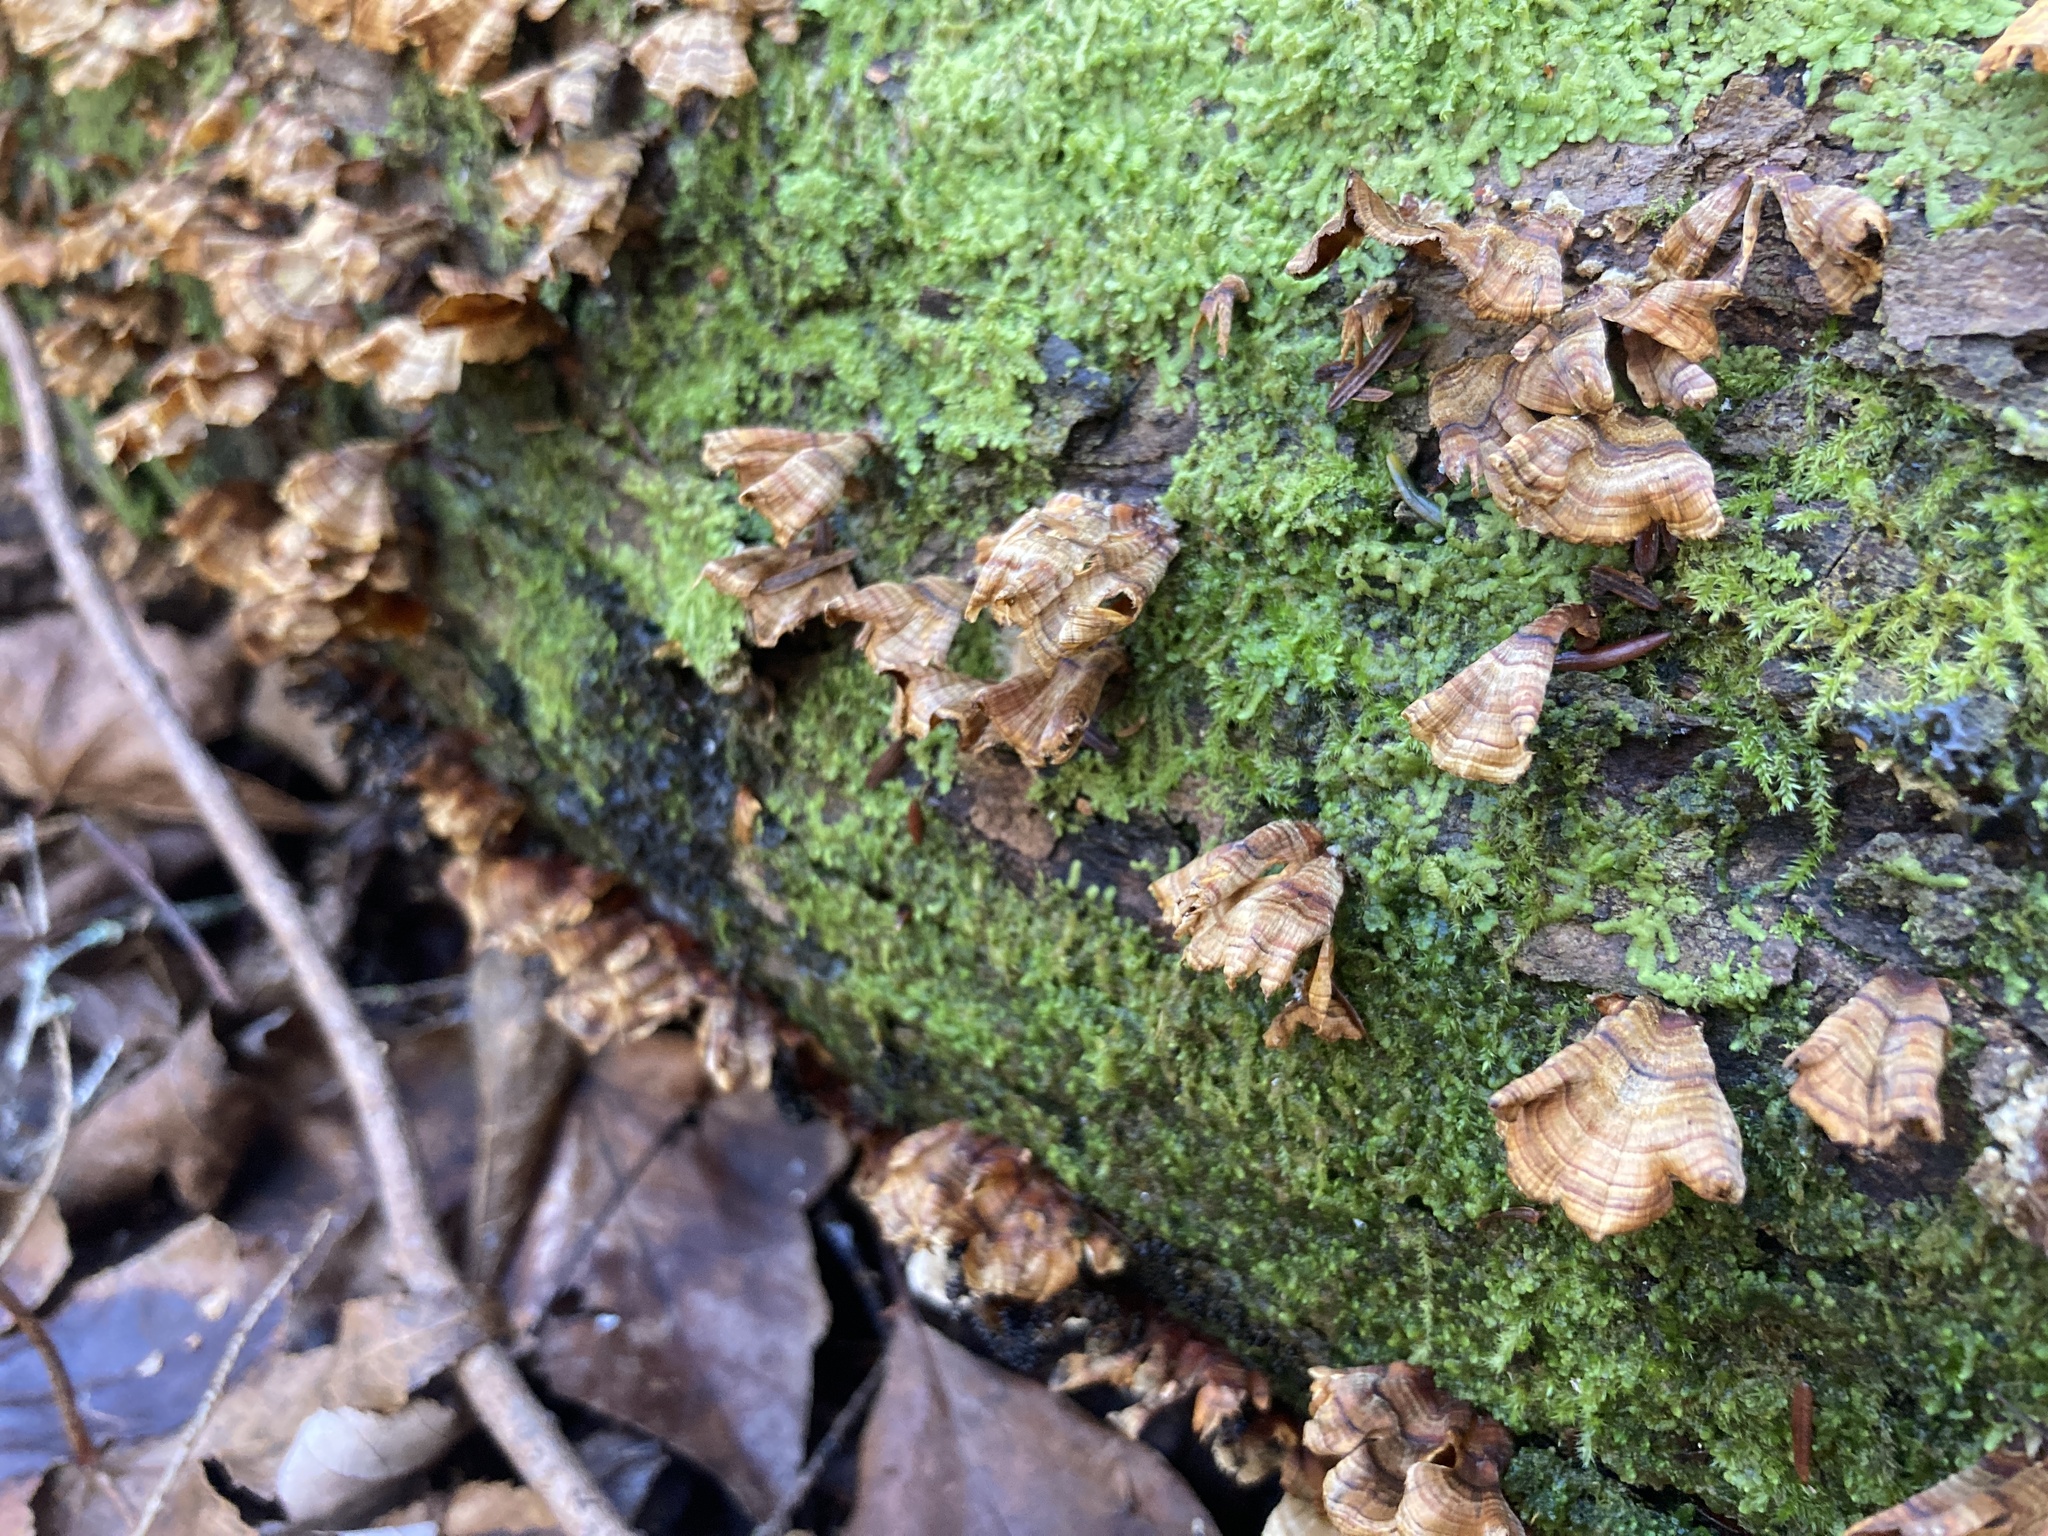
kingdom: Fungi
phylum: Basidiomycota
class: Agaricomycetes
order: Russulales
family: Stereaceae
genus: Stereum
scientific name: Stereum complicatum
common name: Crowded parchment
